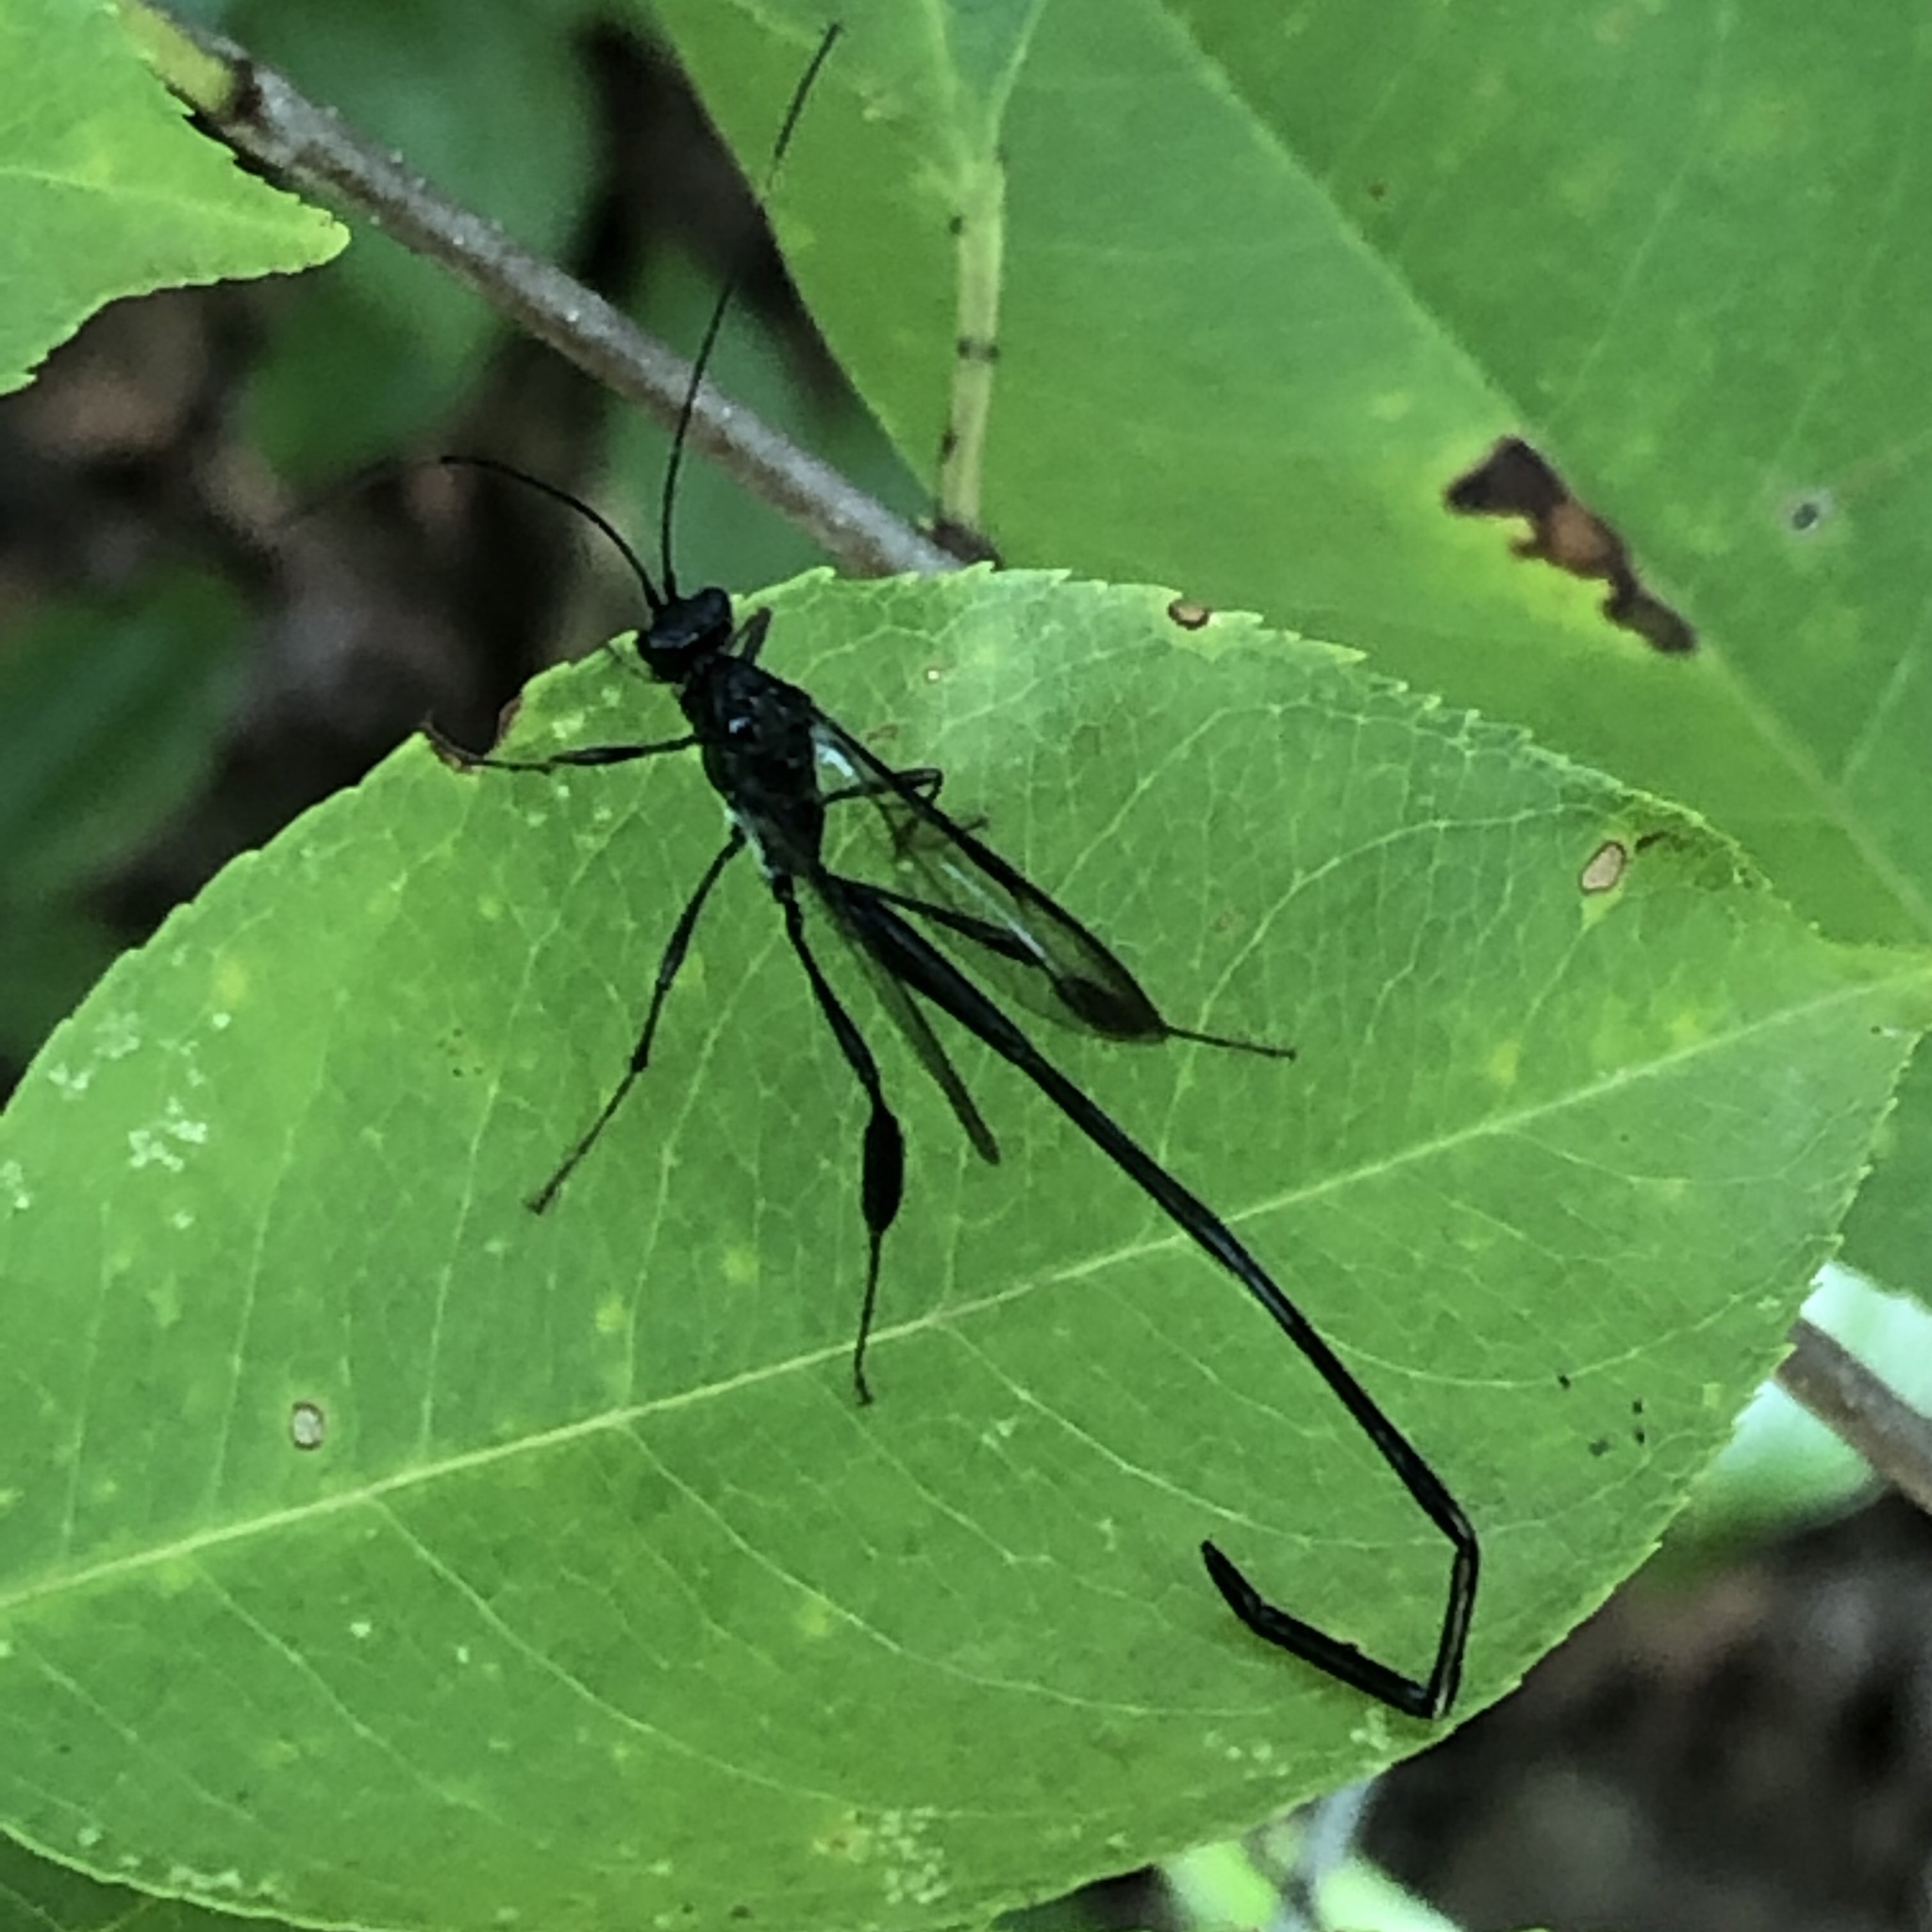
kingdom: Animalia
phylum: Arthropoda
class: Insecta
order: Hymenoptera
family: Pelecinidae
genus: Pelecinus
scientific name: Pelecinus polyturator
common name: American pelecinid wasp
